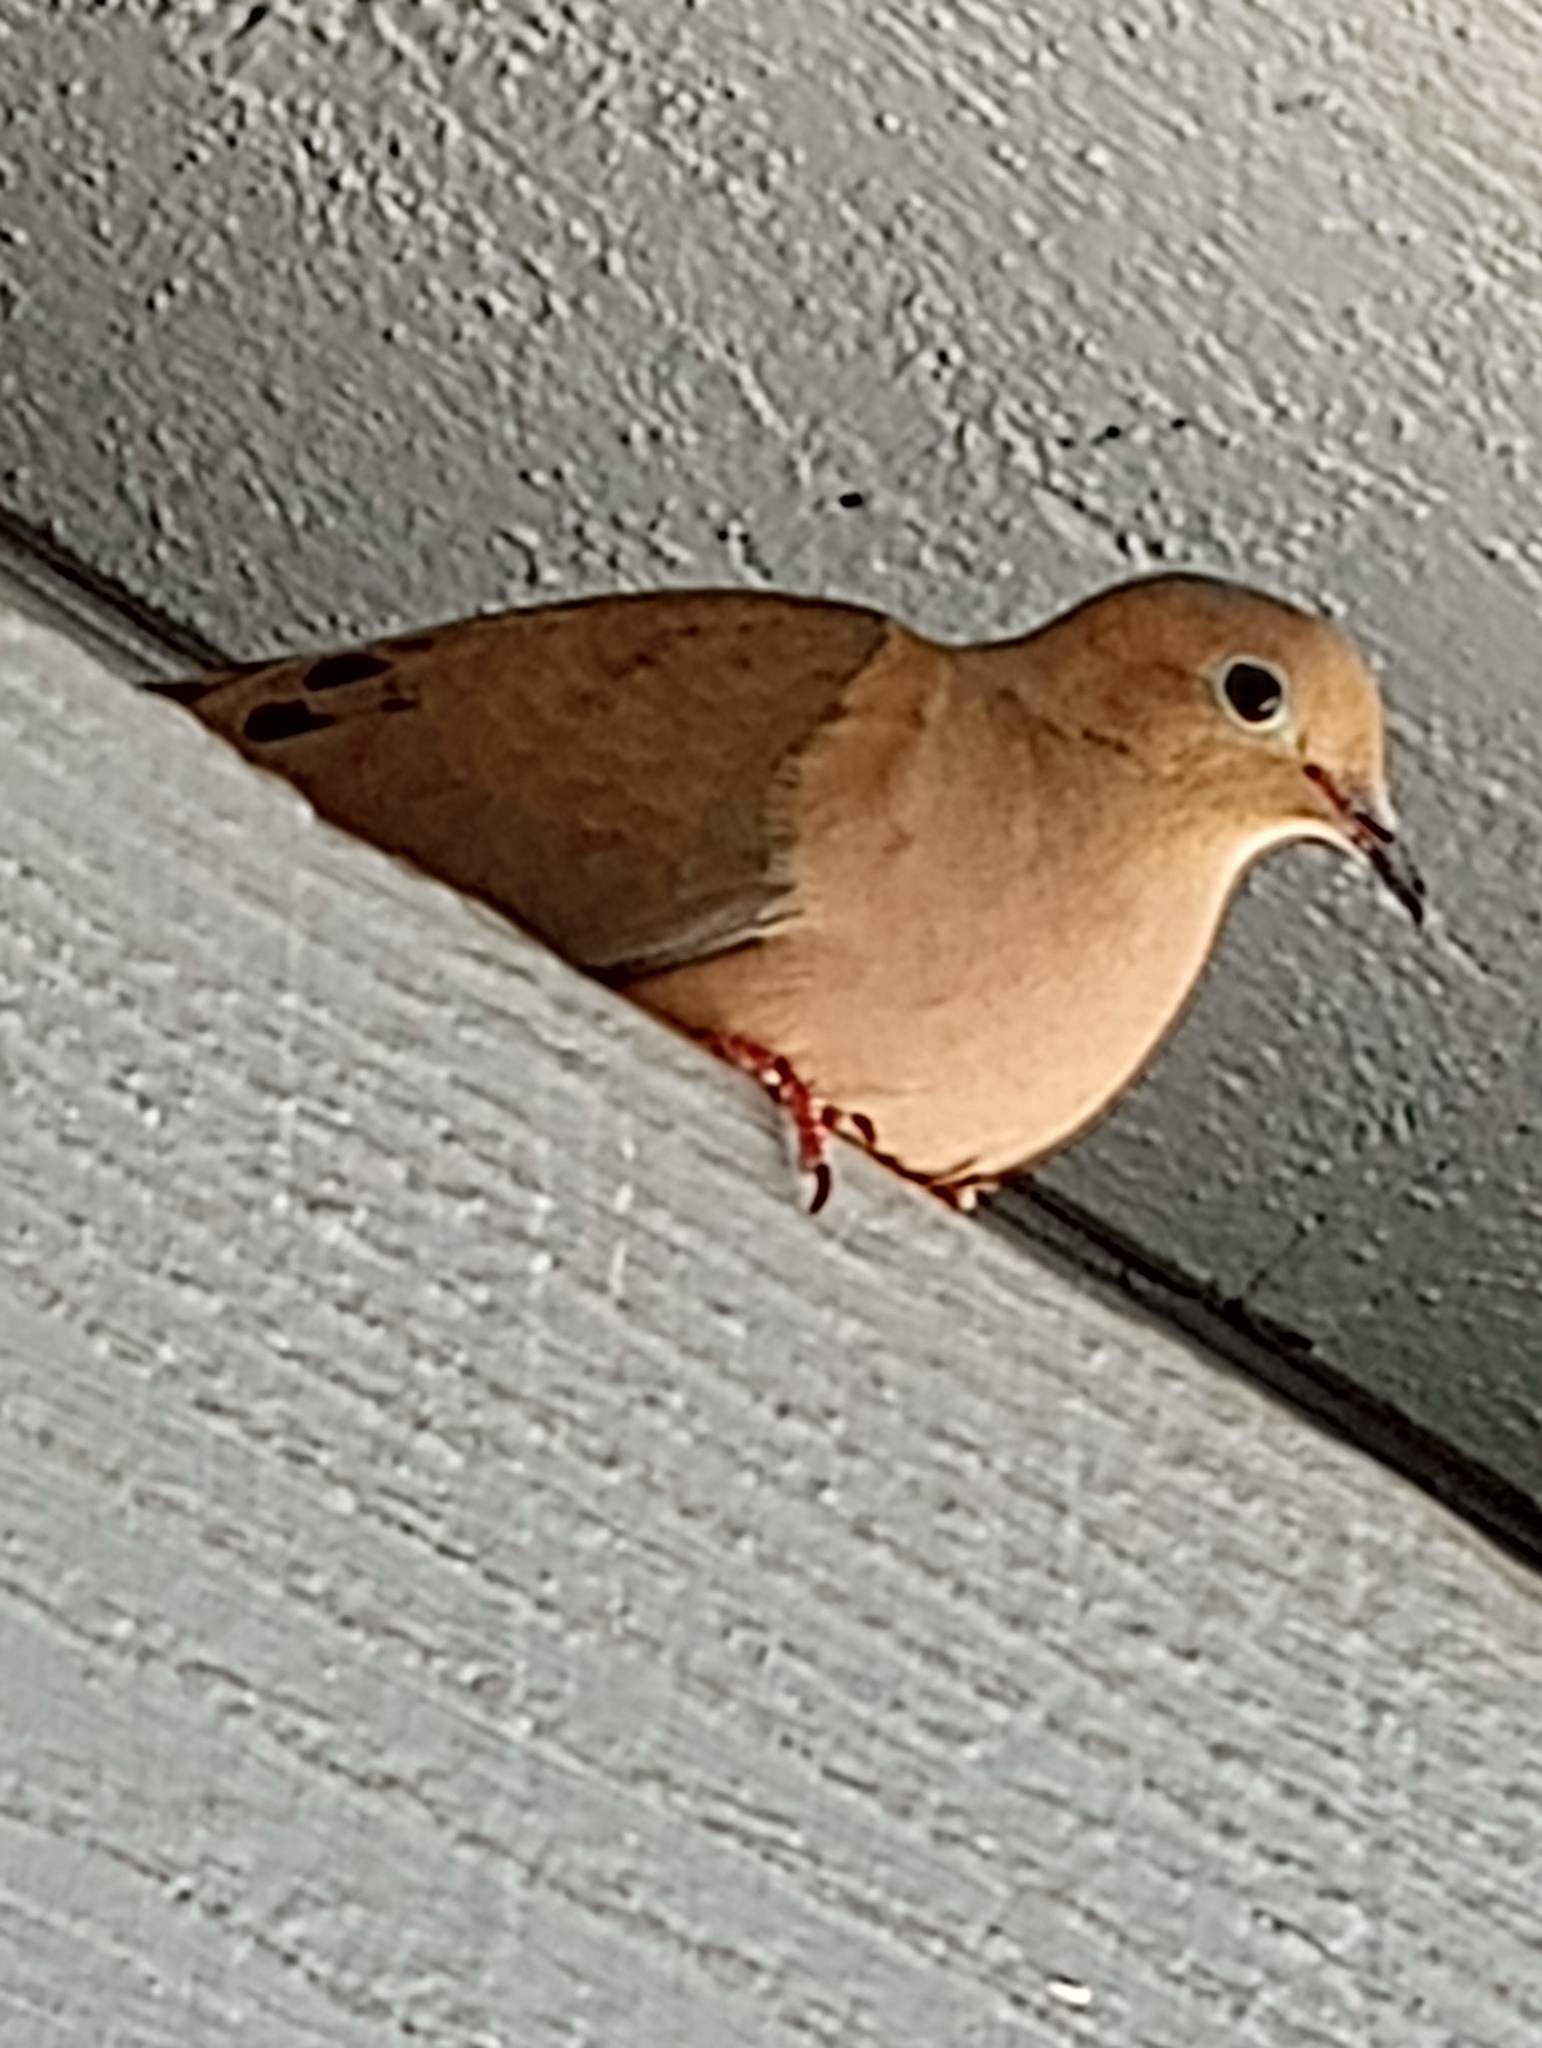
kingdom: Animalia
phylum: Chordata
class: Aves
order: Columbiformes
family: Columbidae
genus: Zenaida
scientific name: Zenaida macroura
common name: Mourning dove
